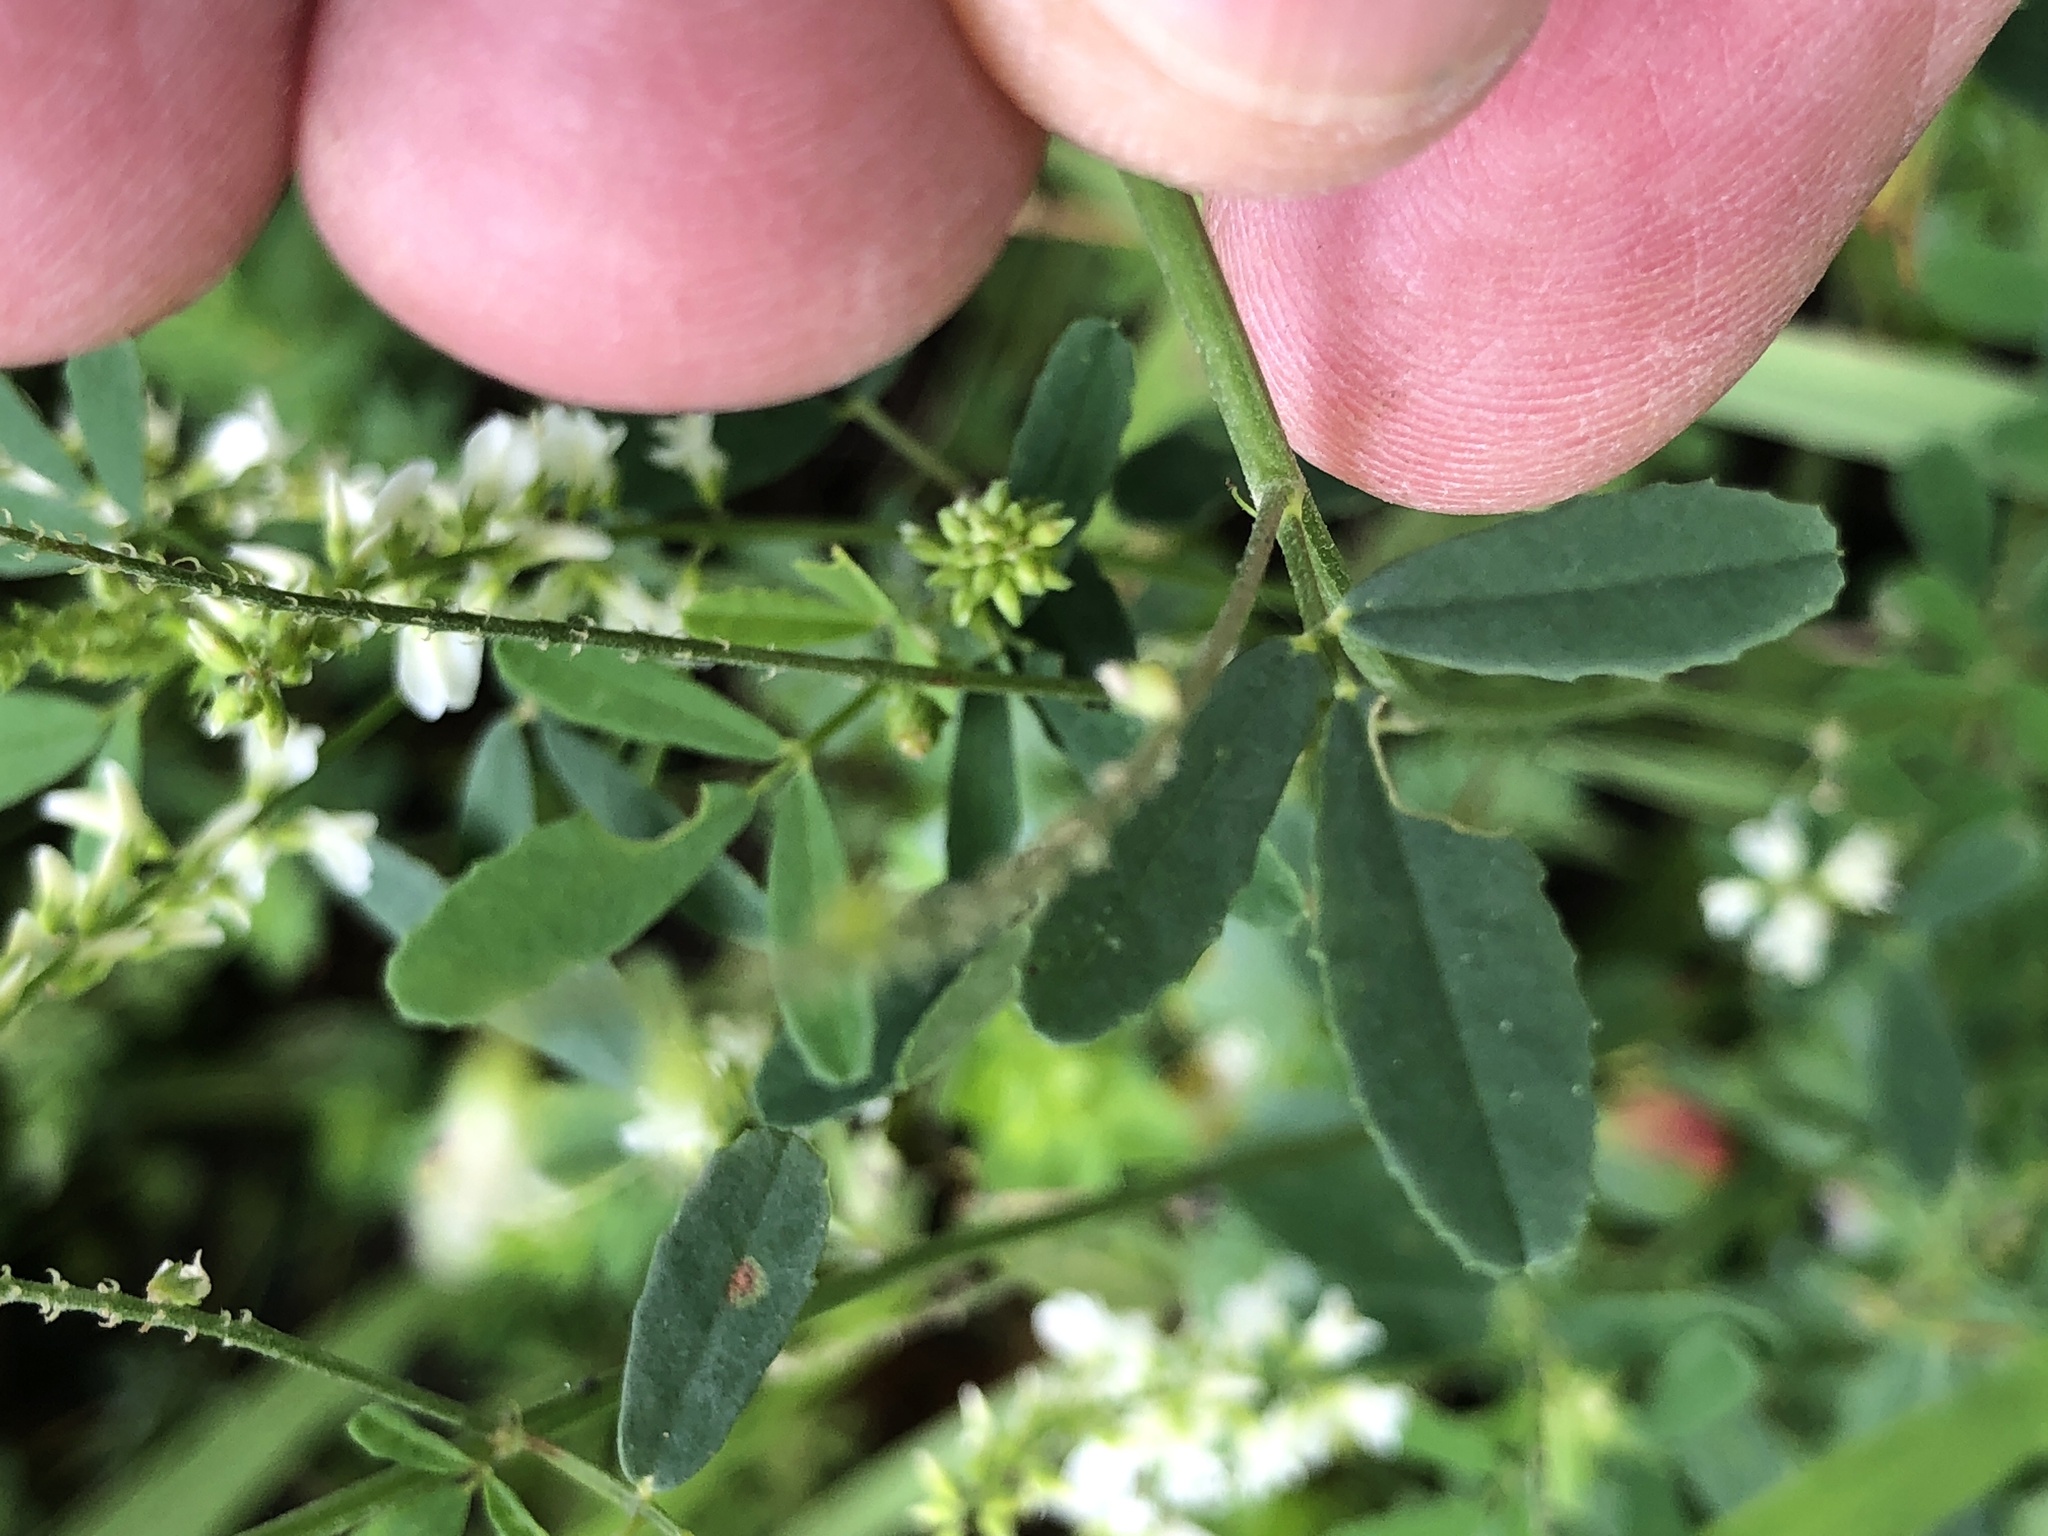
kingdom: Plantae
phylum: Tracheophyta
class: Magnoliopsida
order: Fabales
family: Fabaceae
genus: Melilotus
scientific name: Melilotus albus
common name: White melilot
